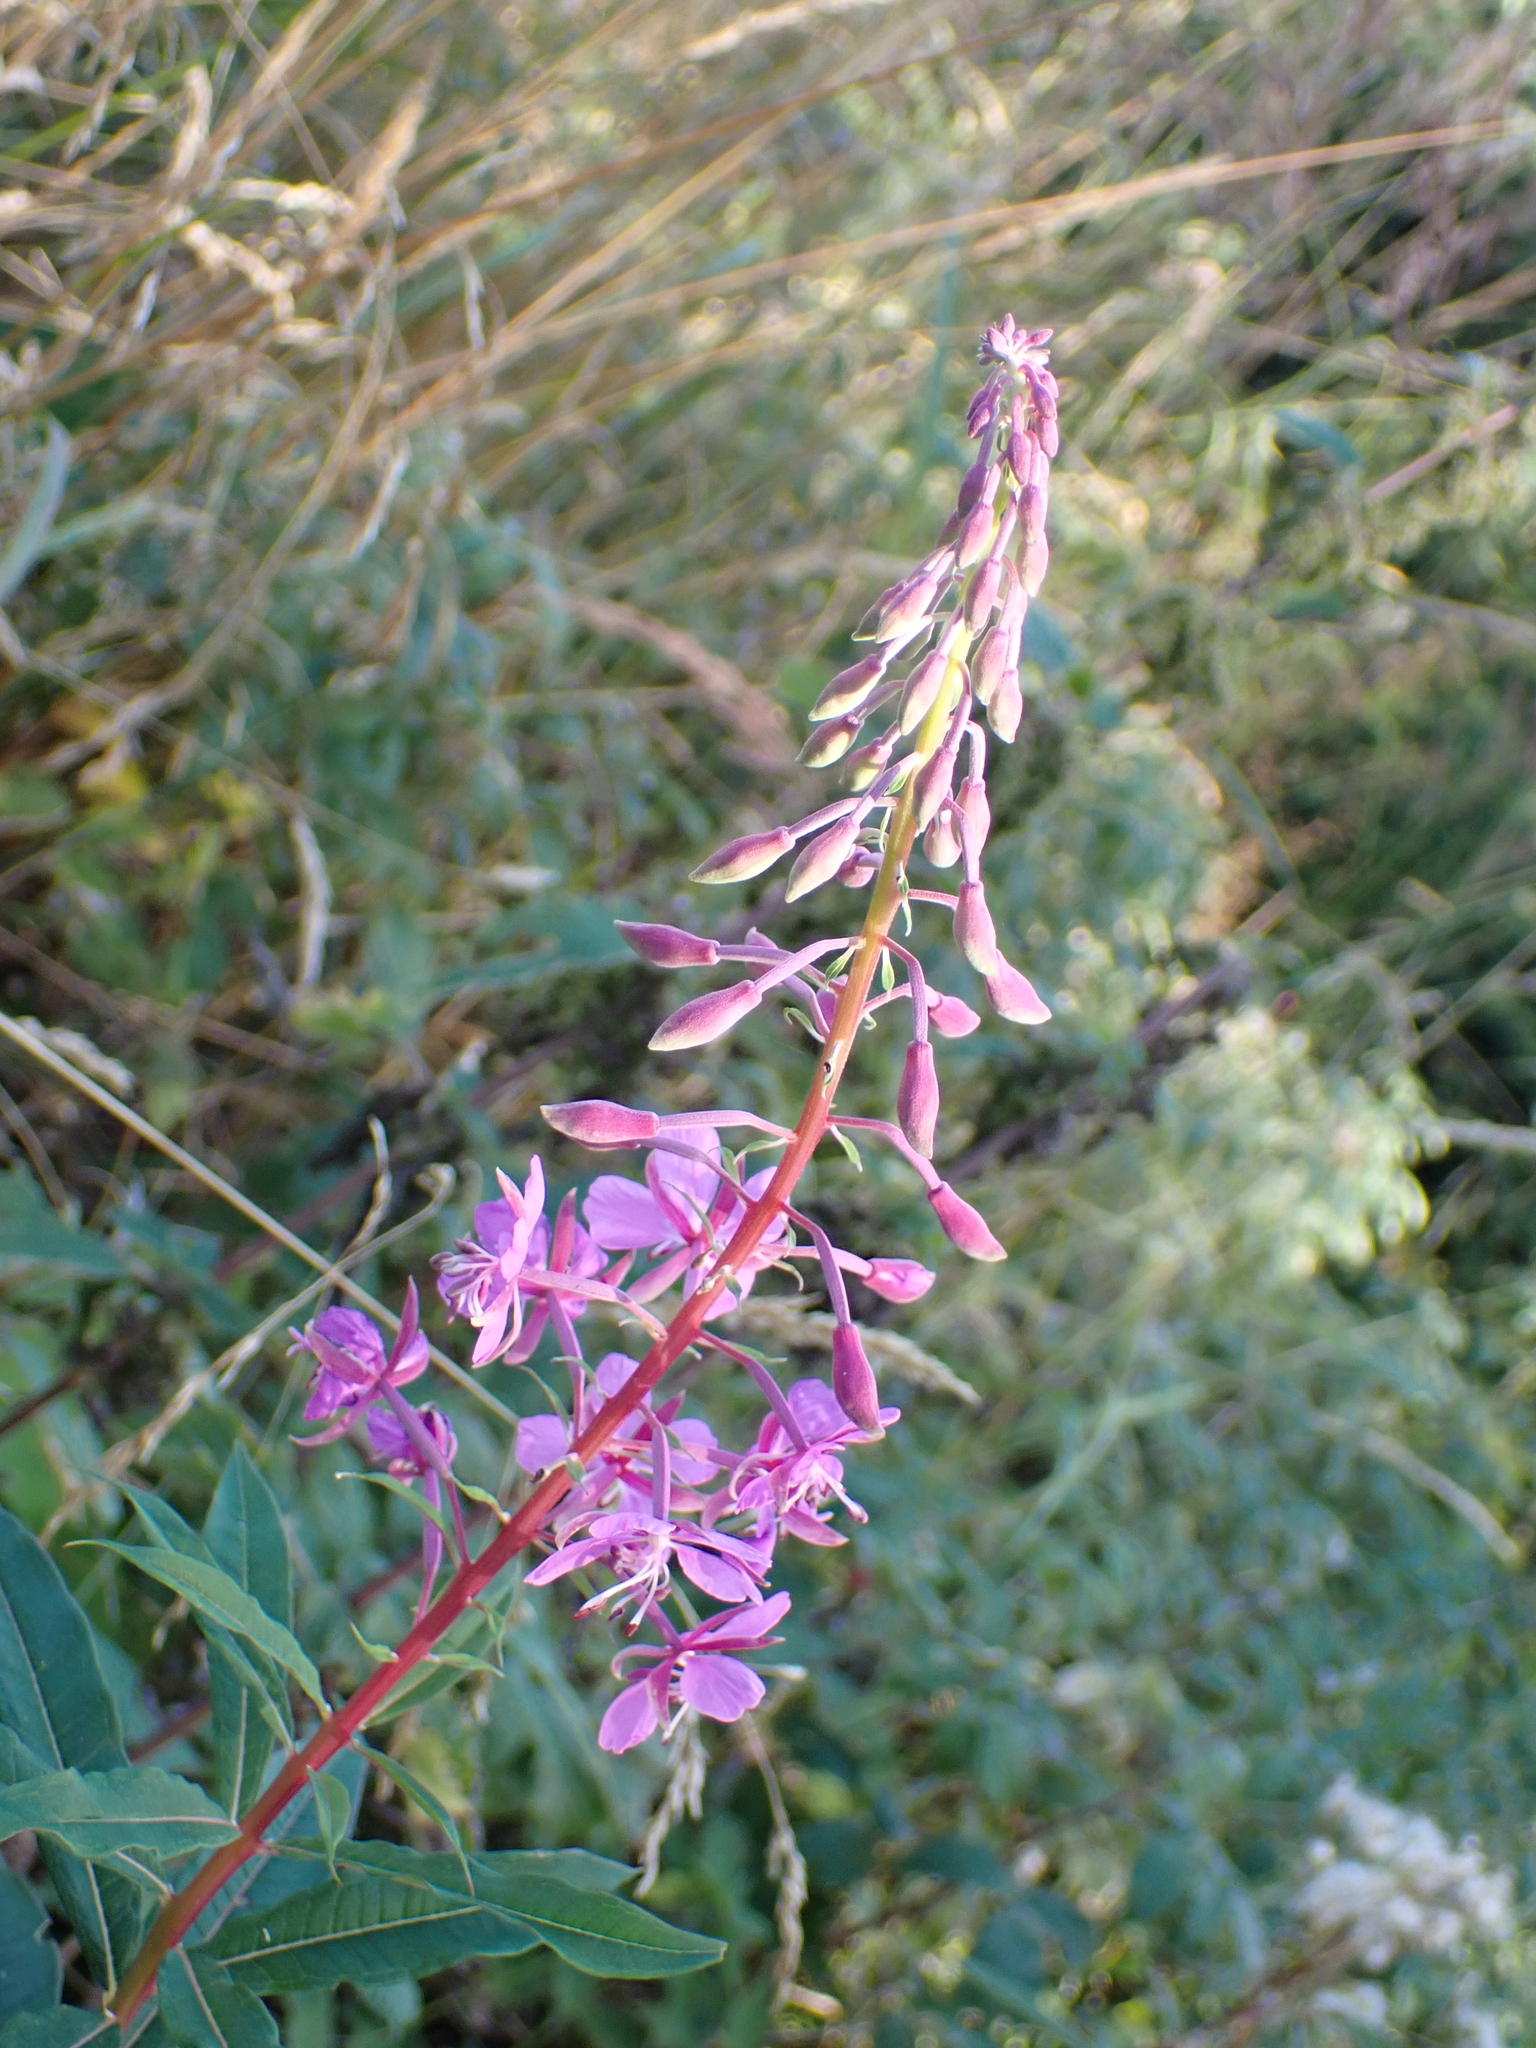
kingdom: Plantae
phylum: Tracheophyta
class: Magnoliopsida
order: Myrtales
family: Onagraceae
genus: Chamaenerion
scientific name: Chamaenerion angustifolium
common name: Fireweed
